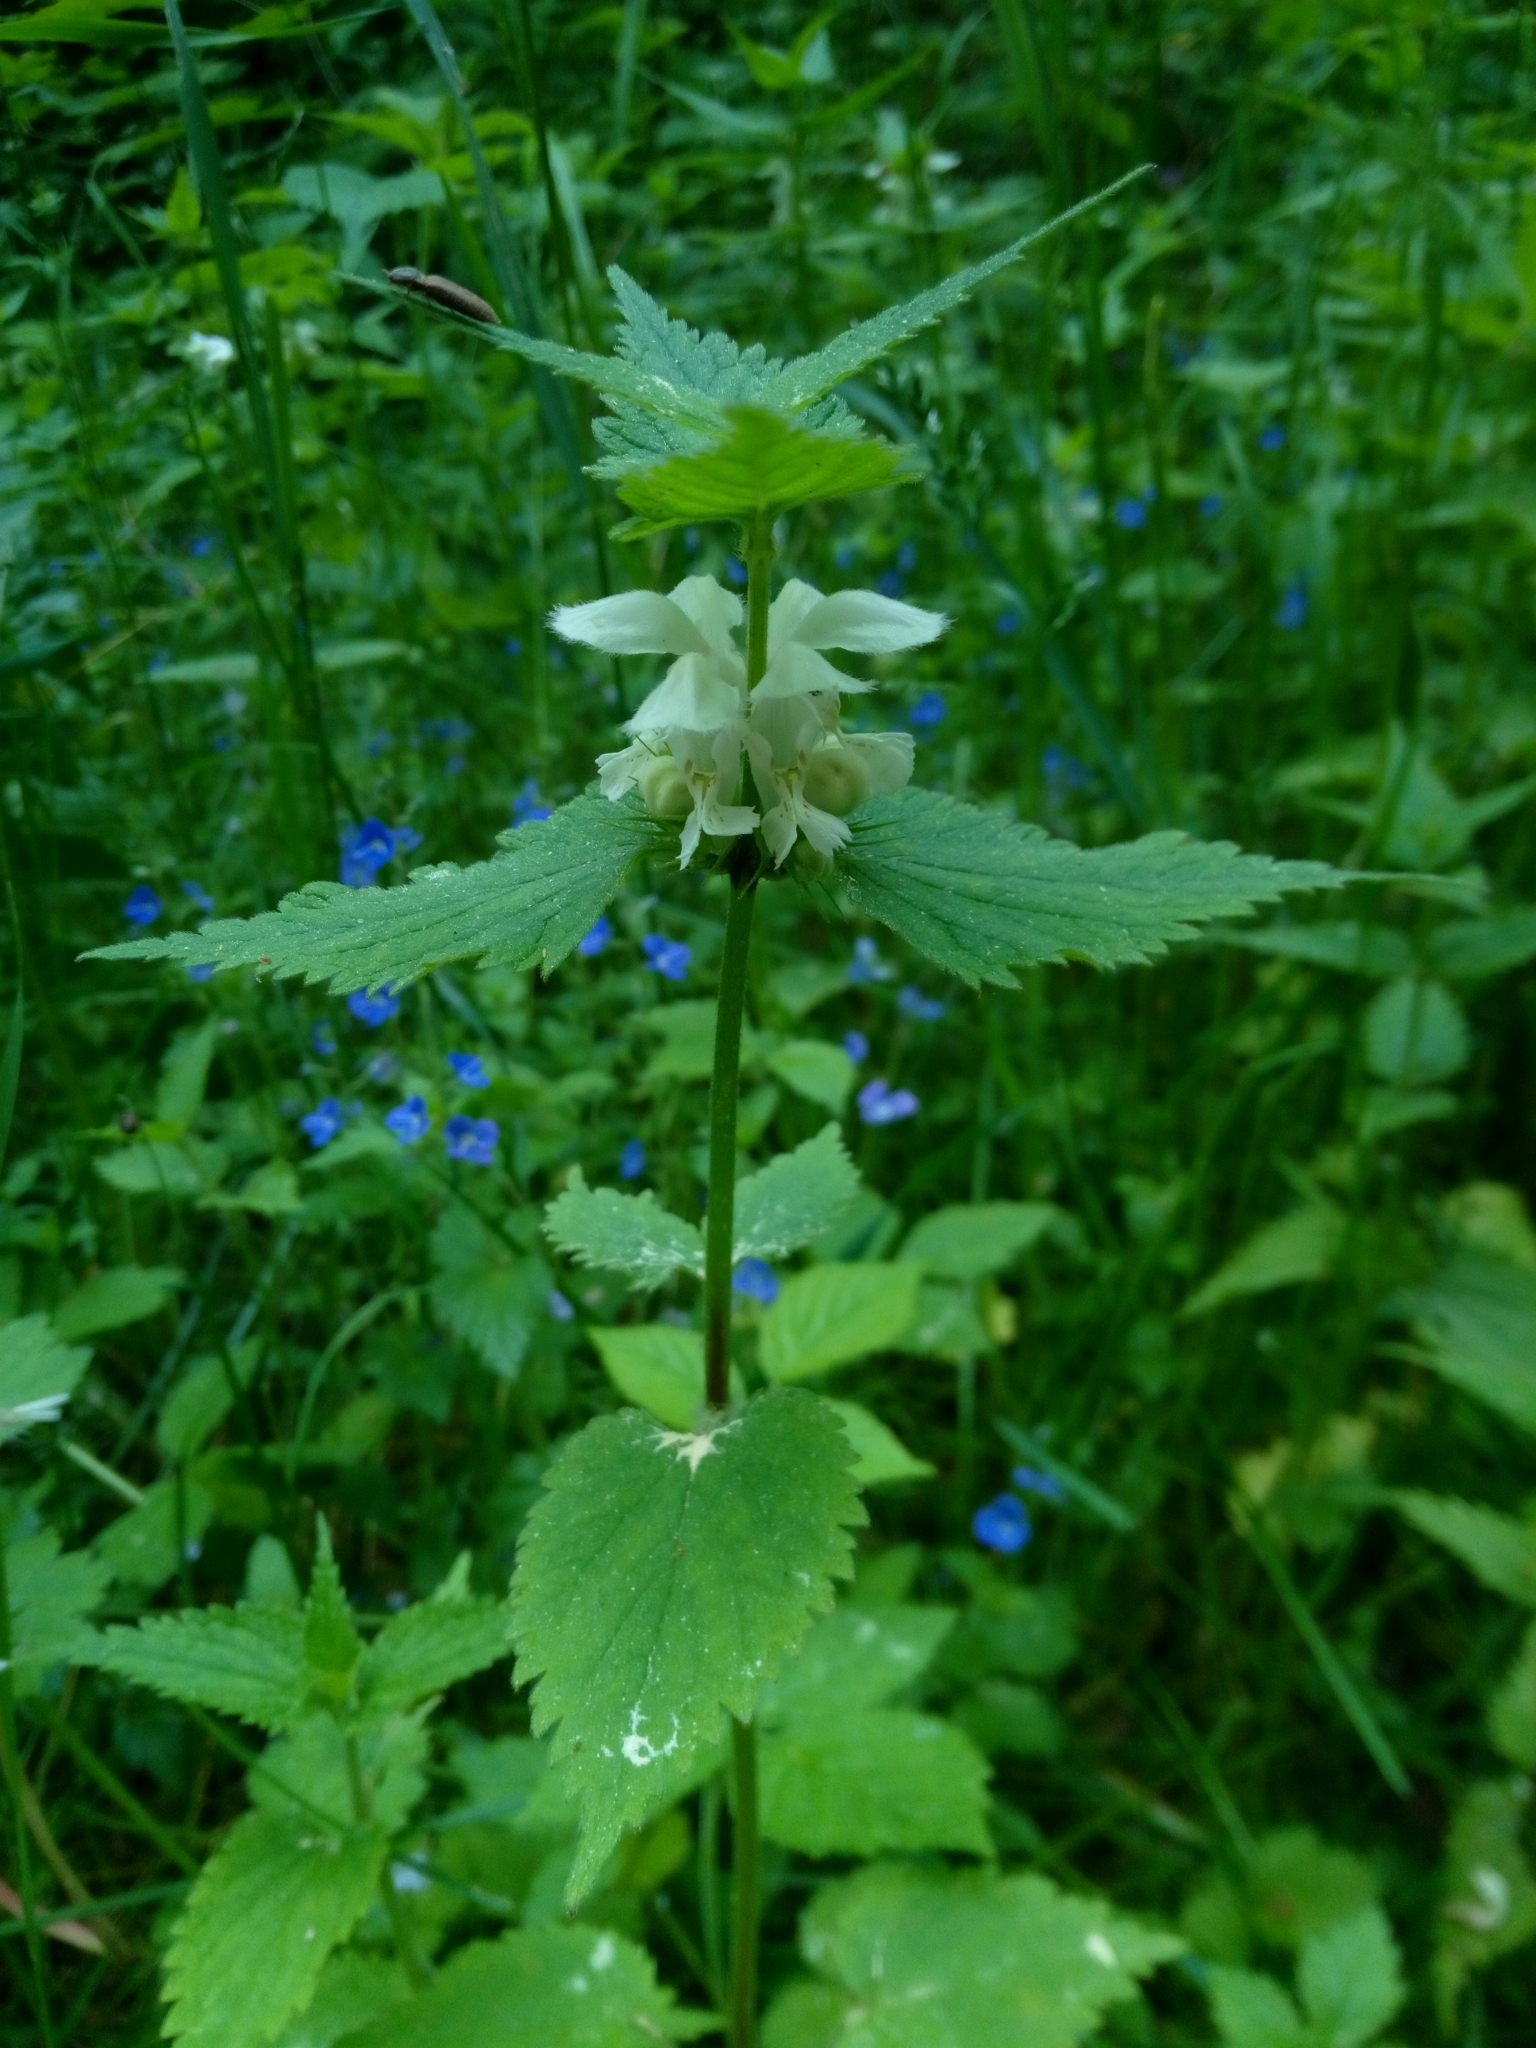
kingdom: Plantae
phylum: Tracheophyta
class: Magnoliopsida
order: Lamiales
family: Lamiaceae
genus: Lamium
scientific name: Lamium album
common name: White dead-nettle
